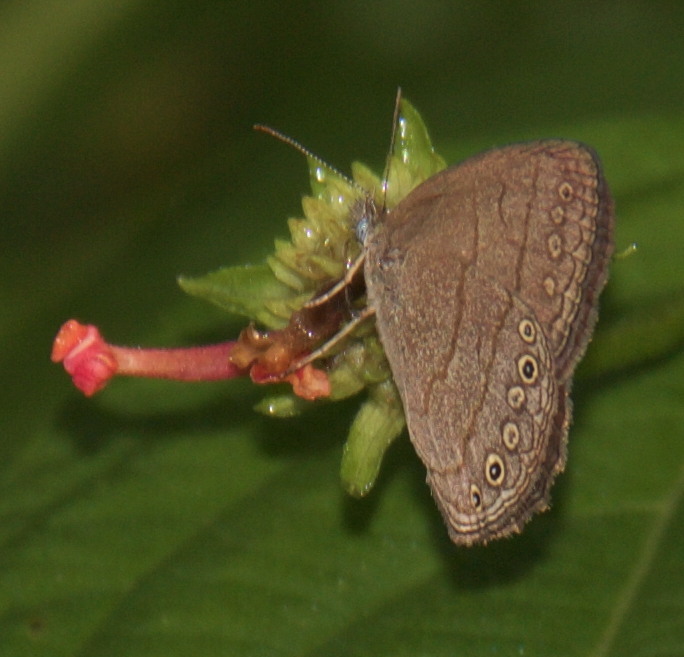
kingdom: Animalia
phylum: Arthropoda
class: Insecta
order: Lepidoptera
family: Nymphalidae
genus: Hermeuptychia
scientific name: Hermeuptychia hermes
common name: Hermes satyr
